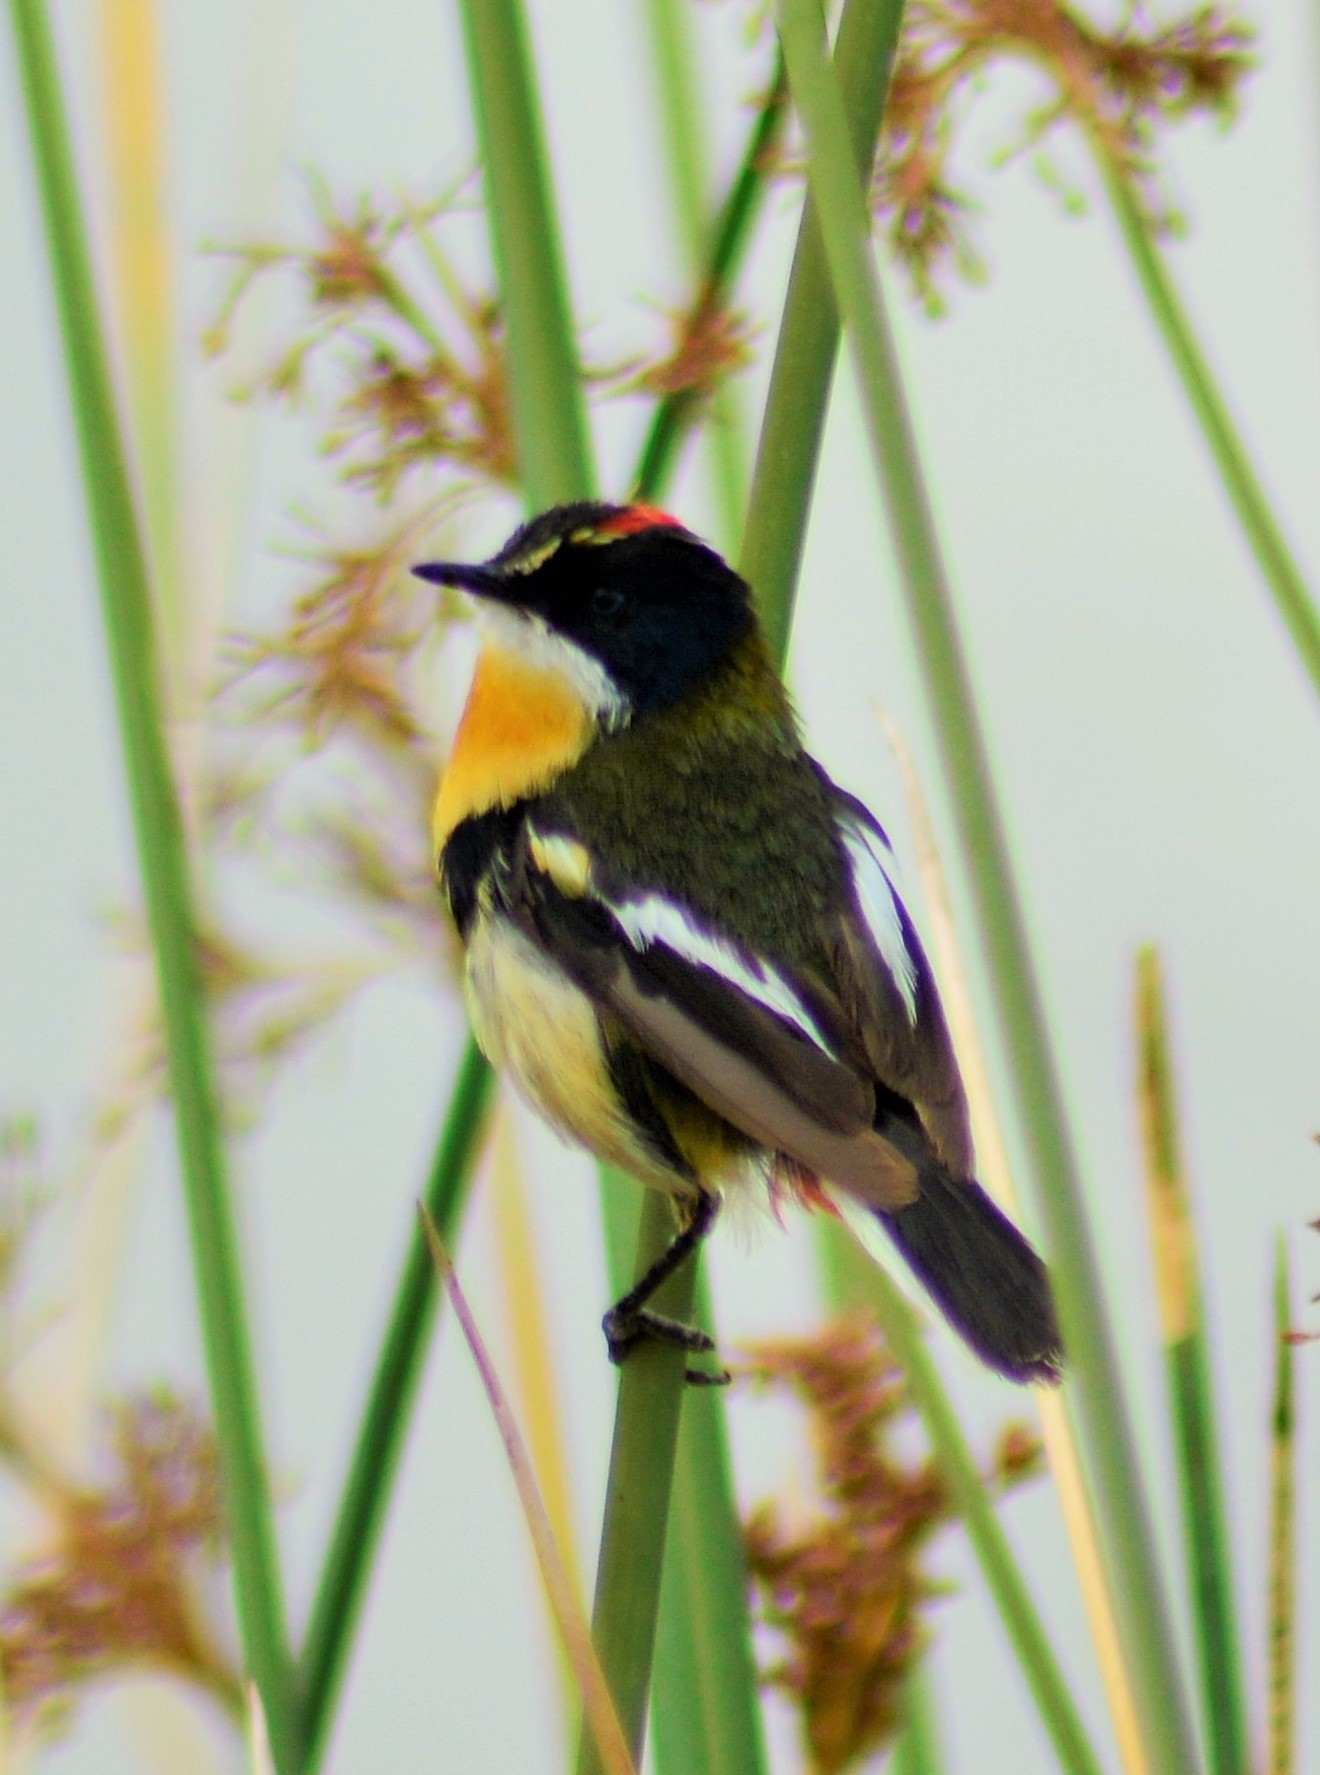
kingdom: Animalia
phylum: Chordata
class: Aves
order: Passeriformes
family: Tyrannidae
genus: Tachuris
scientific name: Tachuris rubrigastra
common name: Many-colored rush tyrant
